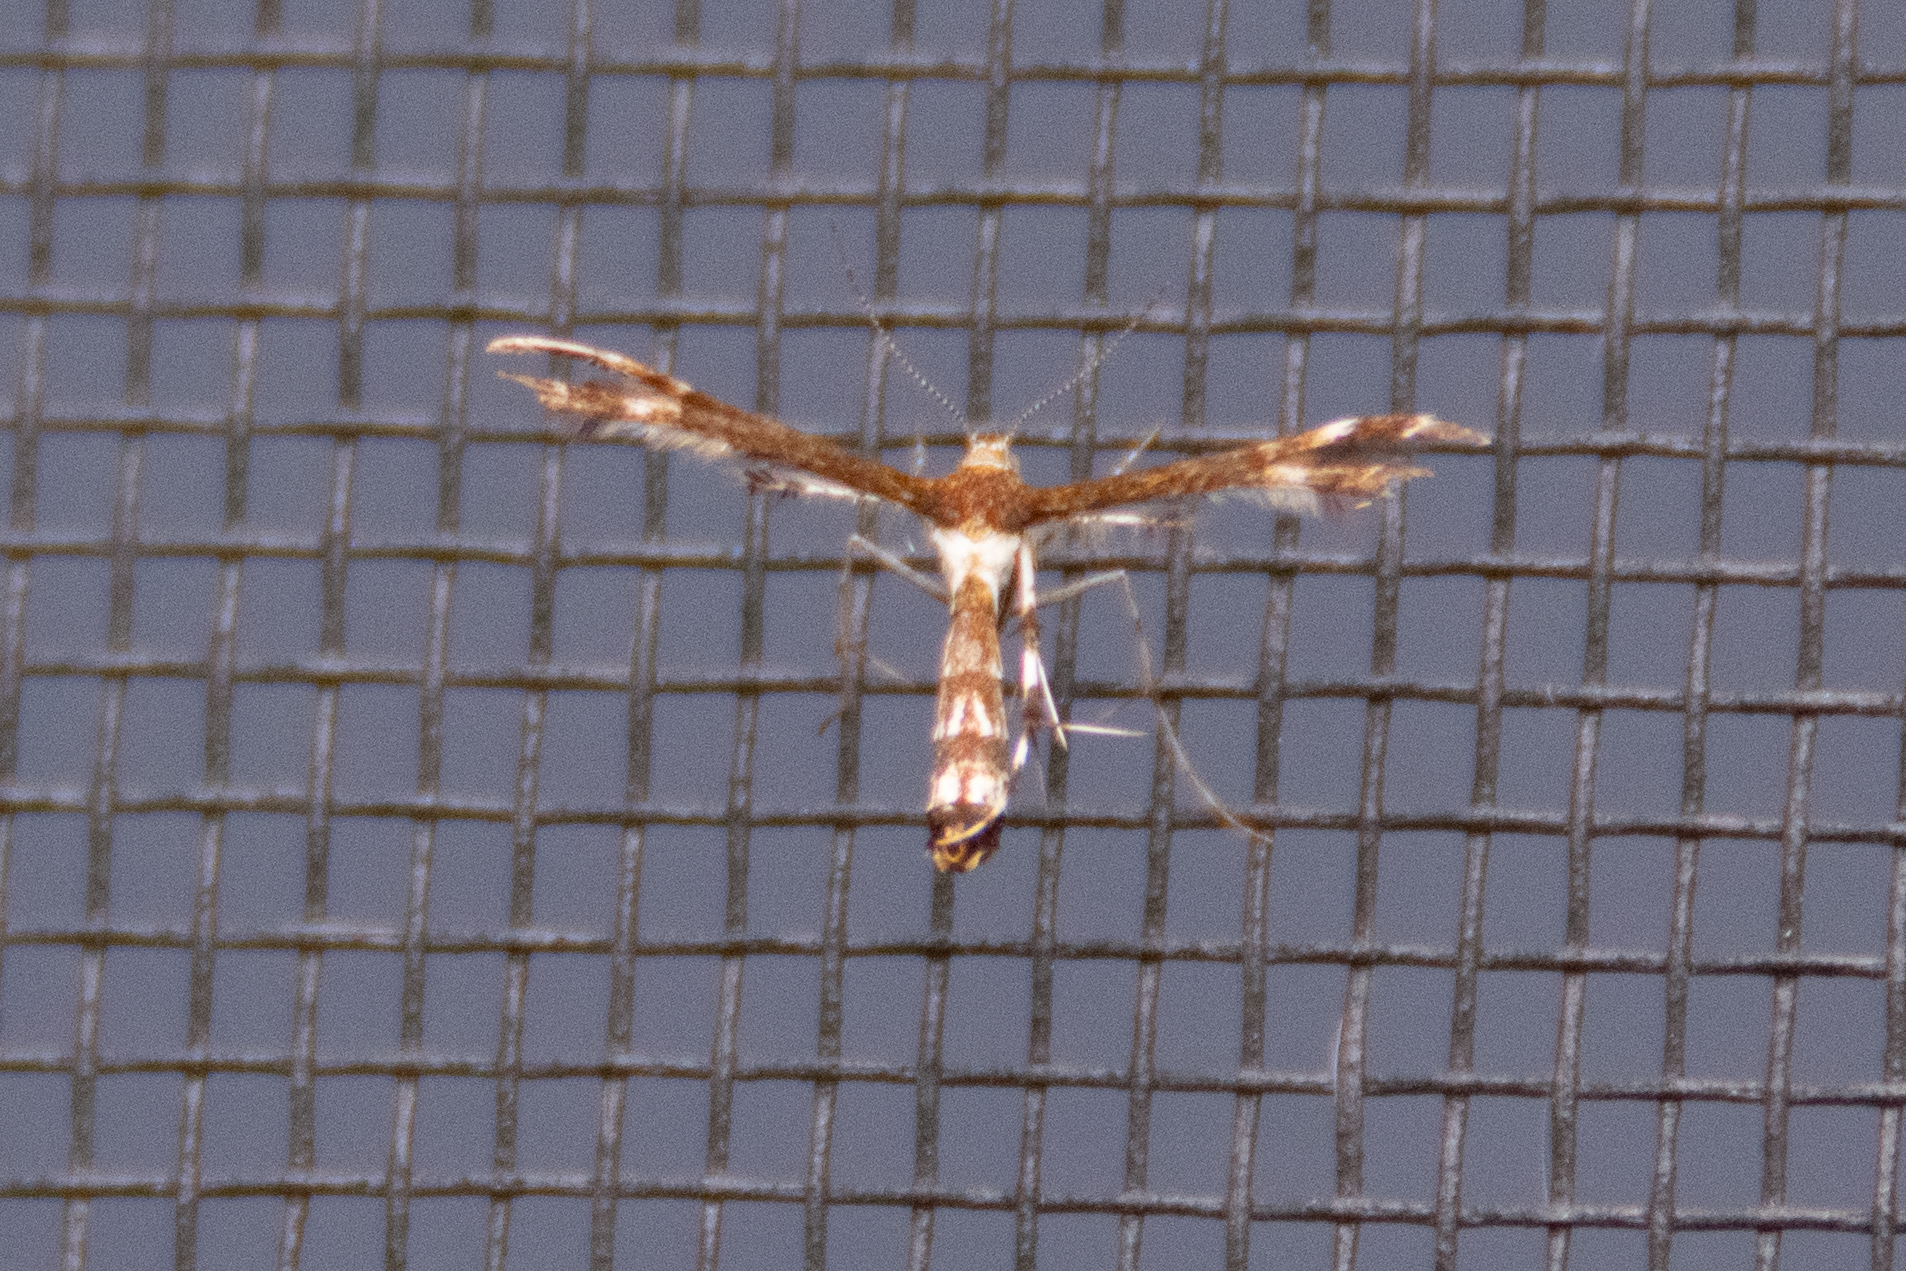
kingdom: Animalia
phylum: Arthropoda
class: Insecta
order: Lepidoptera
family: Pterophoridae
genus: Geina
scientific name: Geina
